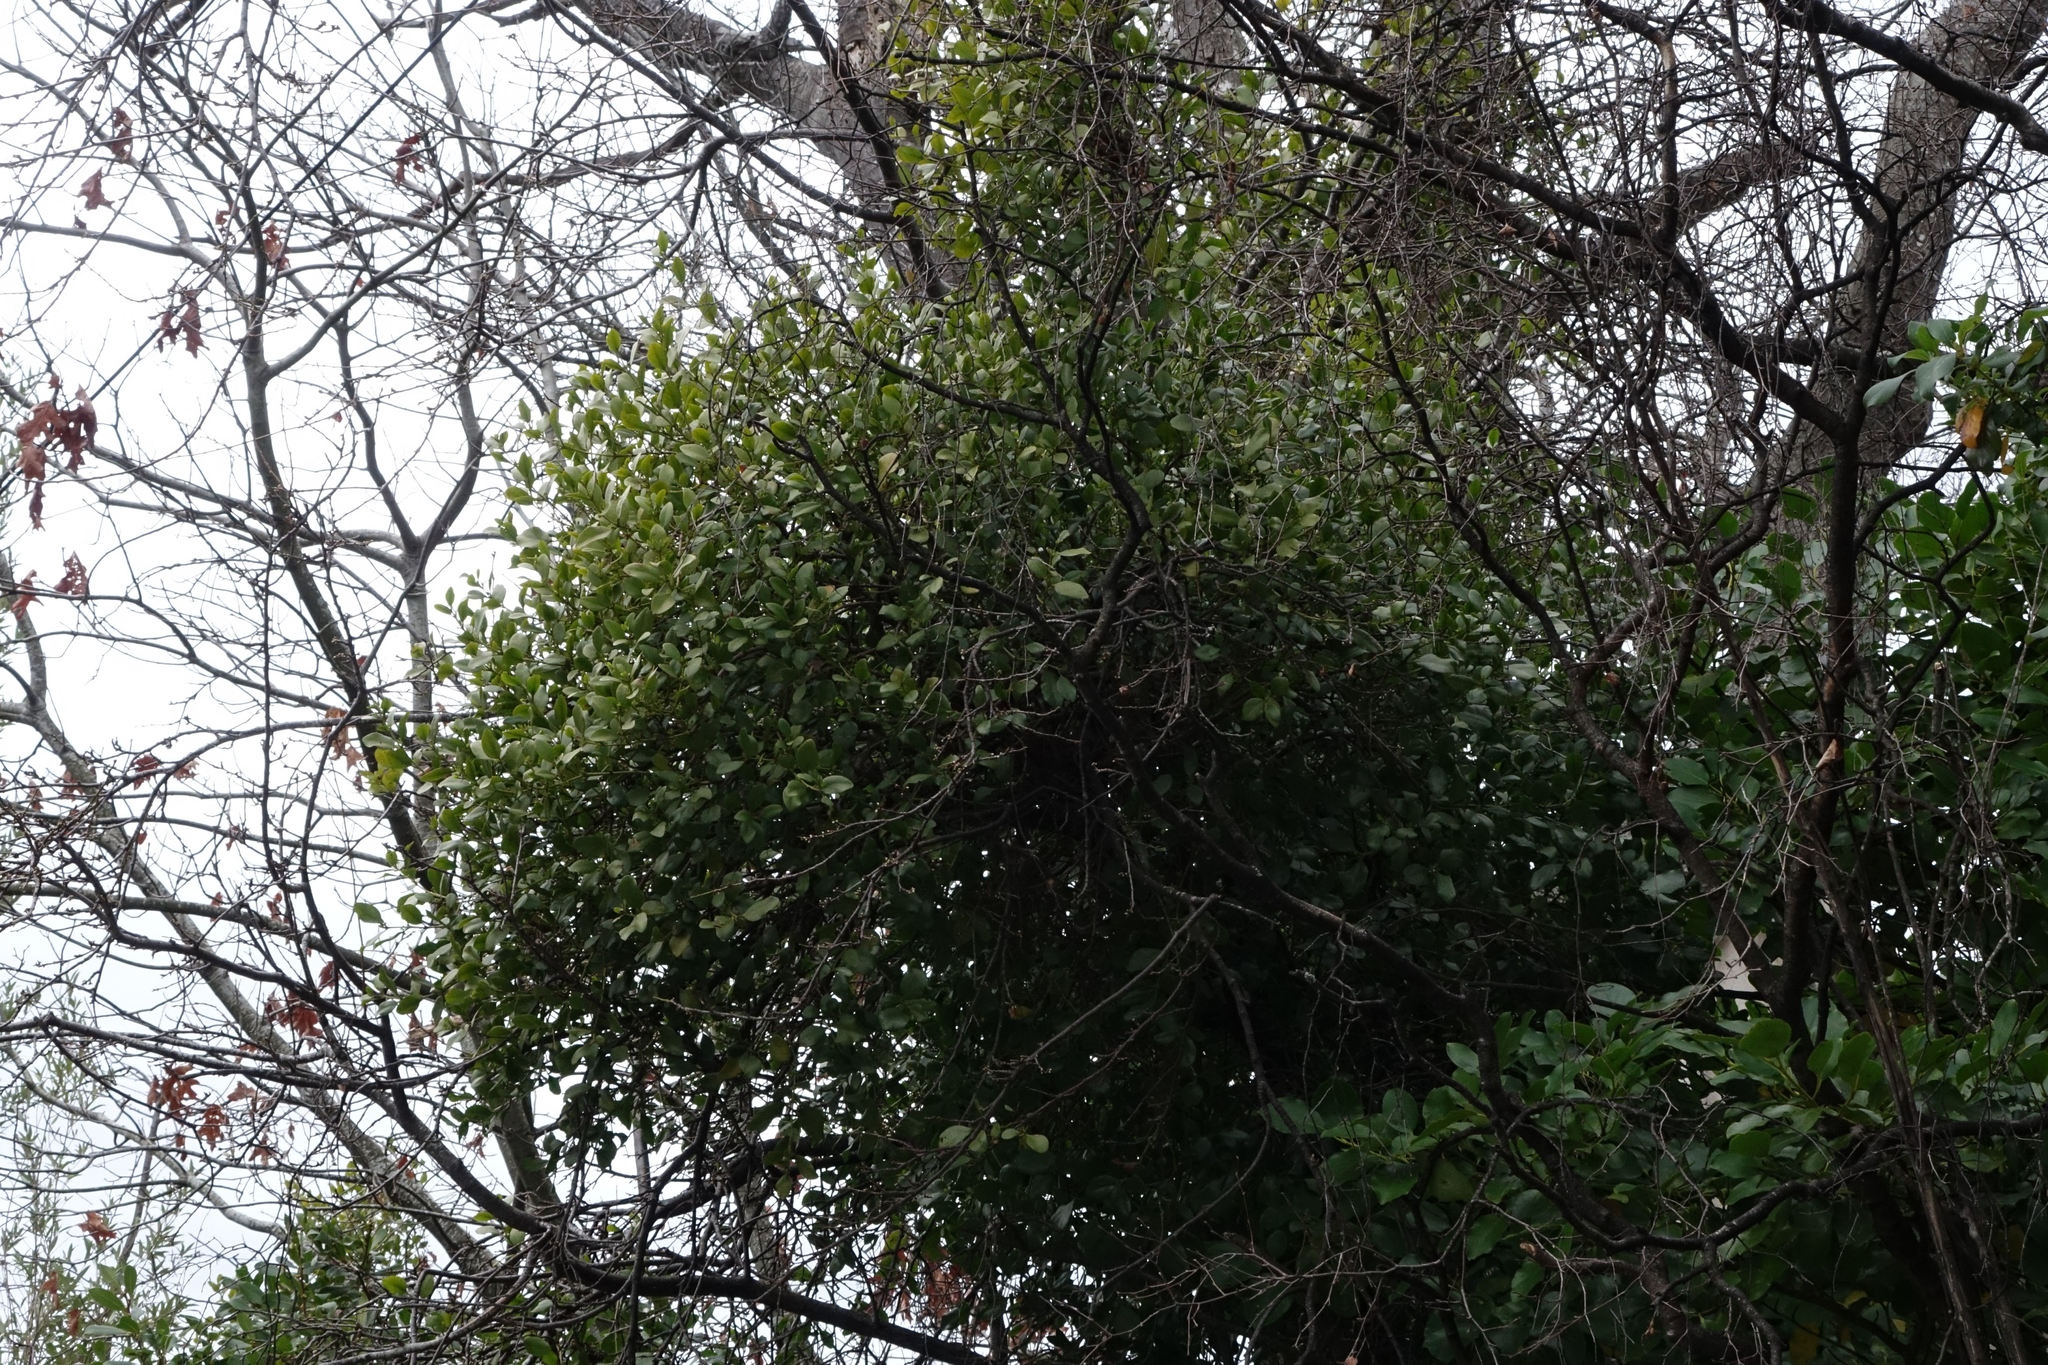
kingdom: Plantae
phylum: Tracheophyta
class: Magnoliopsida
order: Santalales
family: Loranthaceae
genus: Ileostylus
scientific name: Ileostylus micranthus
